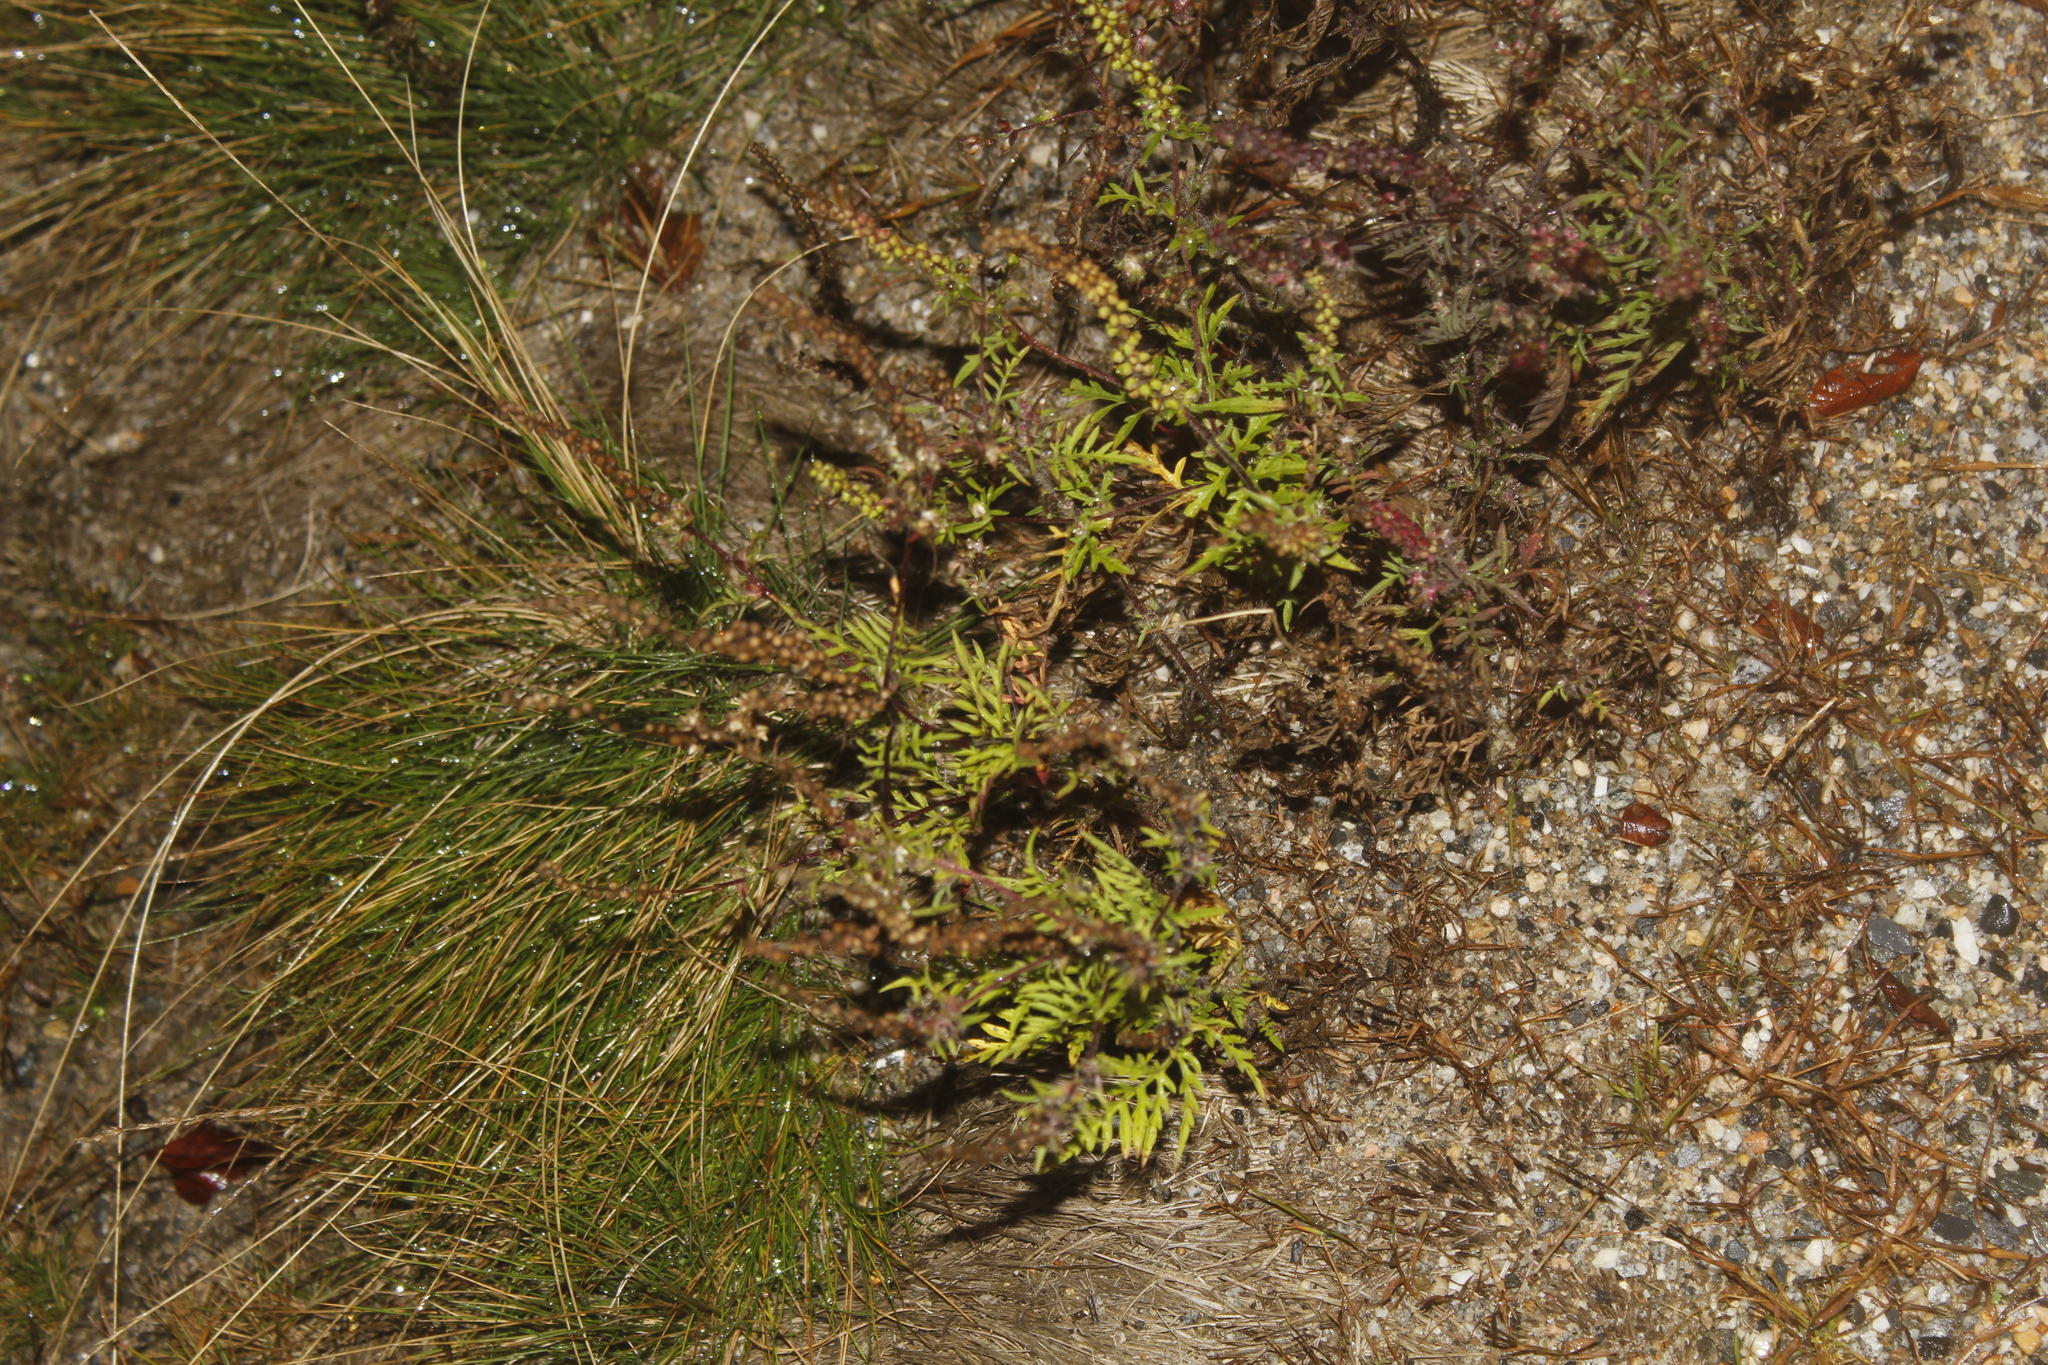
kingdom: Plantae
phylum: Tracheophyta
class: Magnoliopsida
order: Asterales
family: Asteraceae
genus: Ambrosia
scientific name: Ambrosia artemisiifolia
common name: Annual ragweed
